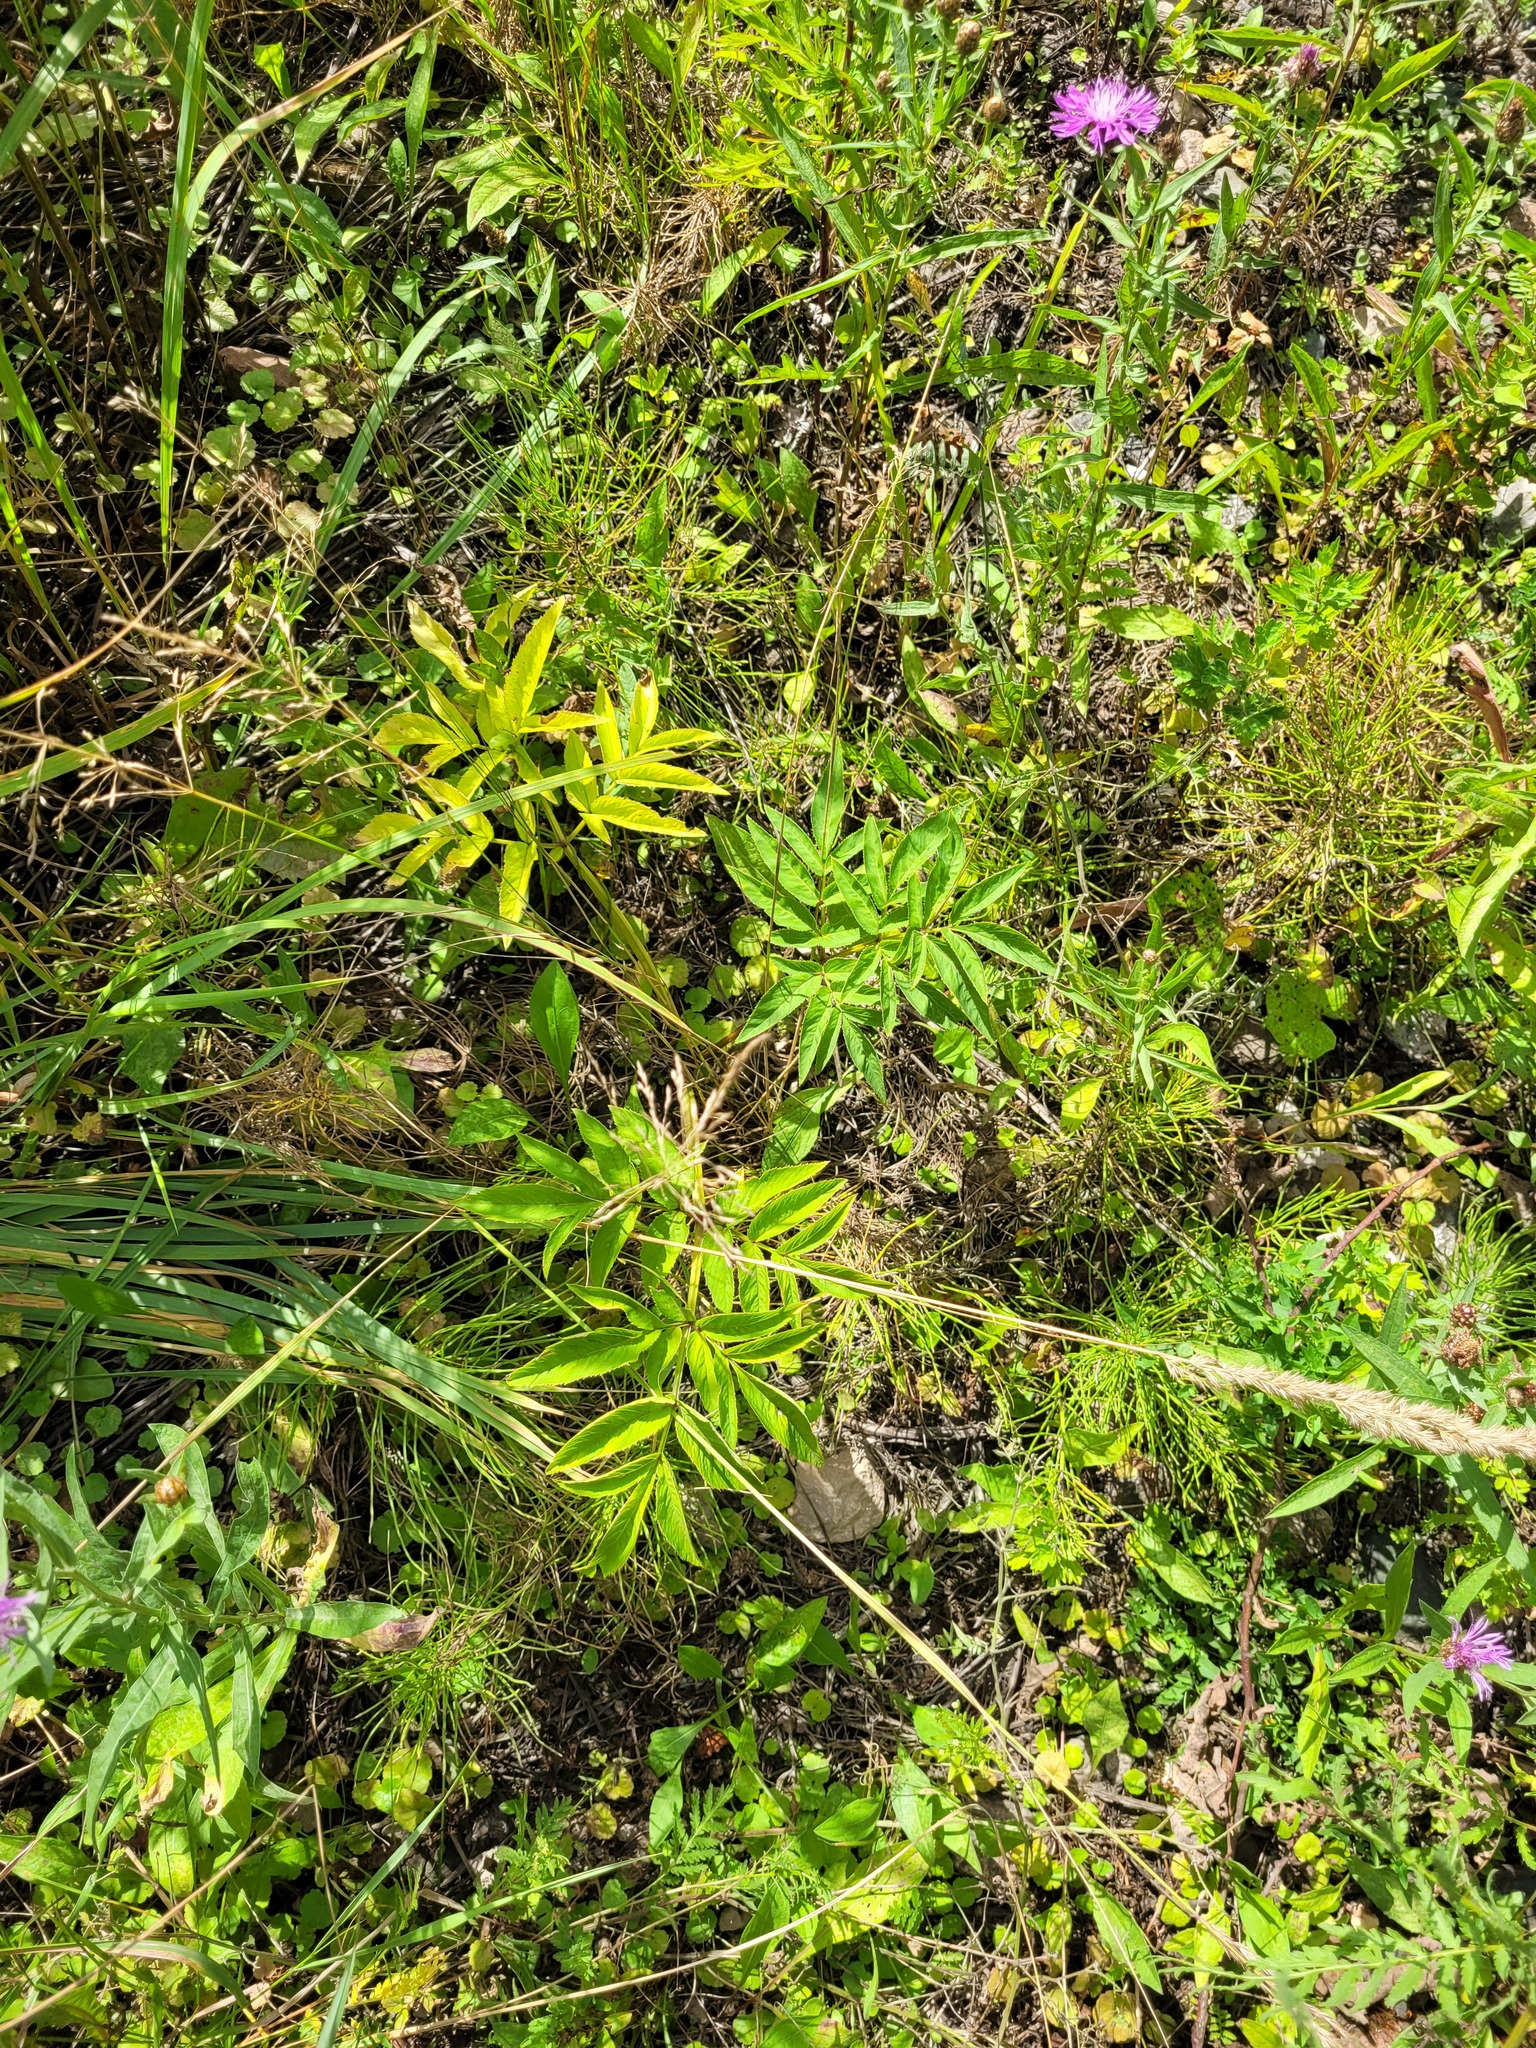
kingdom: Plantae
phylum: Tracheophyta
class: Magnoliopsida
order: Apiales
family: Apiaceae
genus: Angelica
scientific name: Angelica sylvestris
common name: Wild angelica
